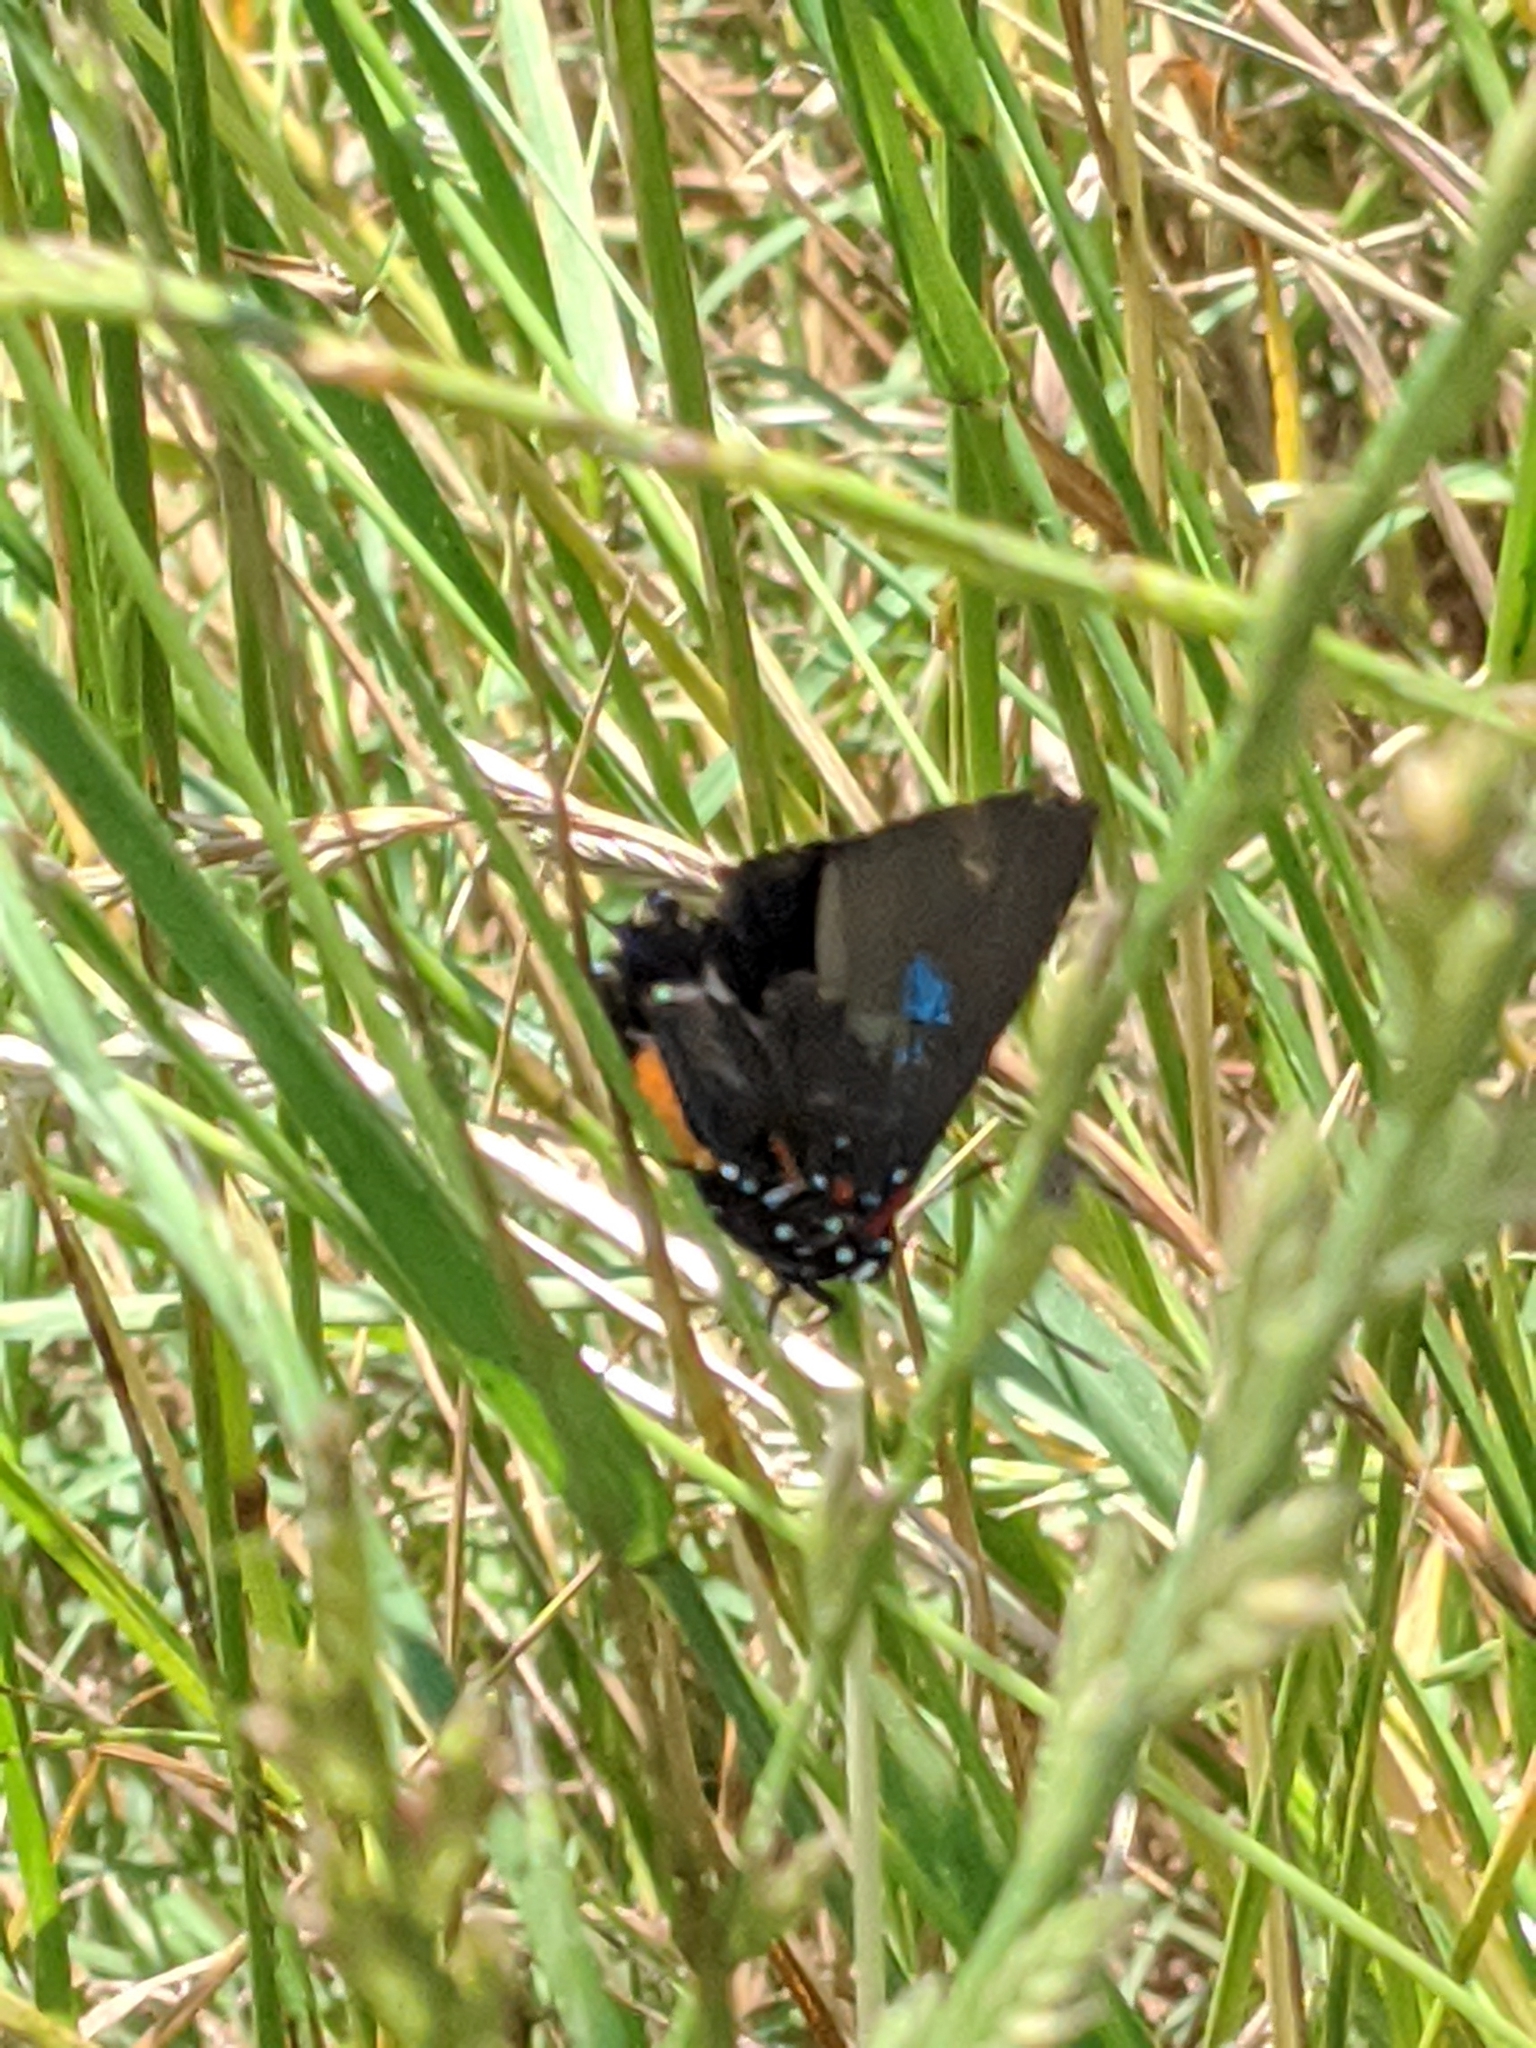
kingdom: Animalia
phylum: Arthropoda
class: Insecta
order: Lepidoptera
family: Lycaenidae
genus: Atlides
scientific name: Atlides halesus
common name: Great purple hairstreak
